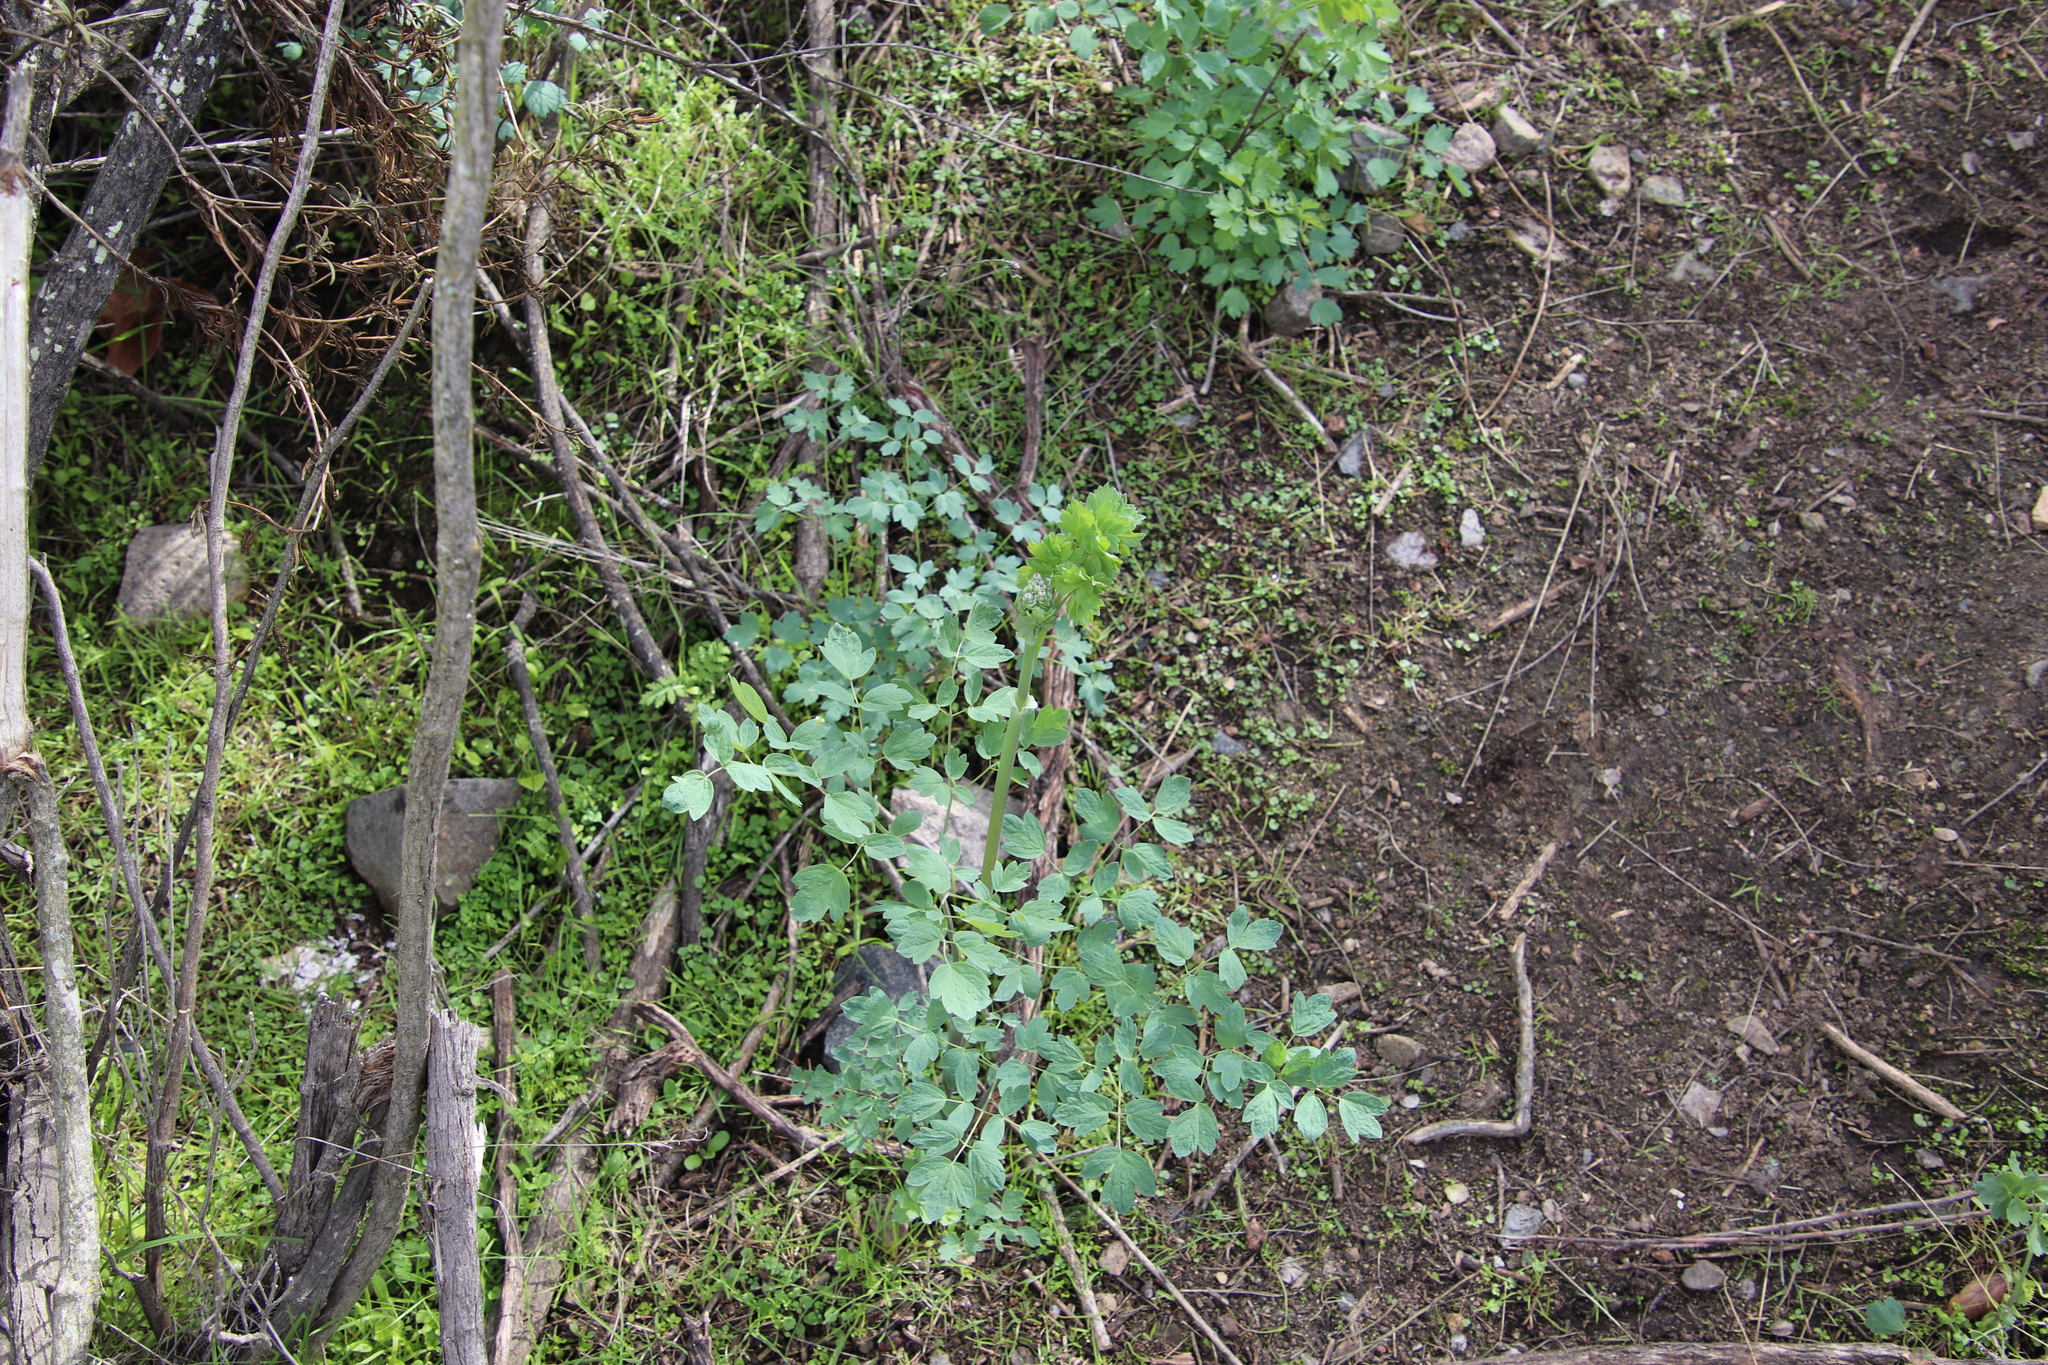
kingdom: Plantae
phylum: Tracheophyta
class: Magnoliopsida
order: Ranunculales
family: Ranunculaceae
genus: Thalictrum
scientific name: Thalictrum fendleri
